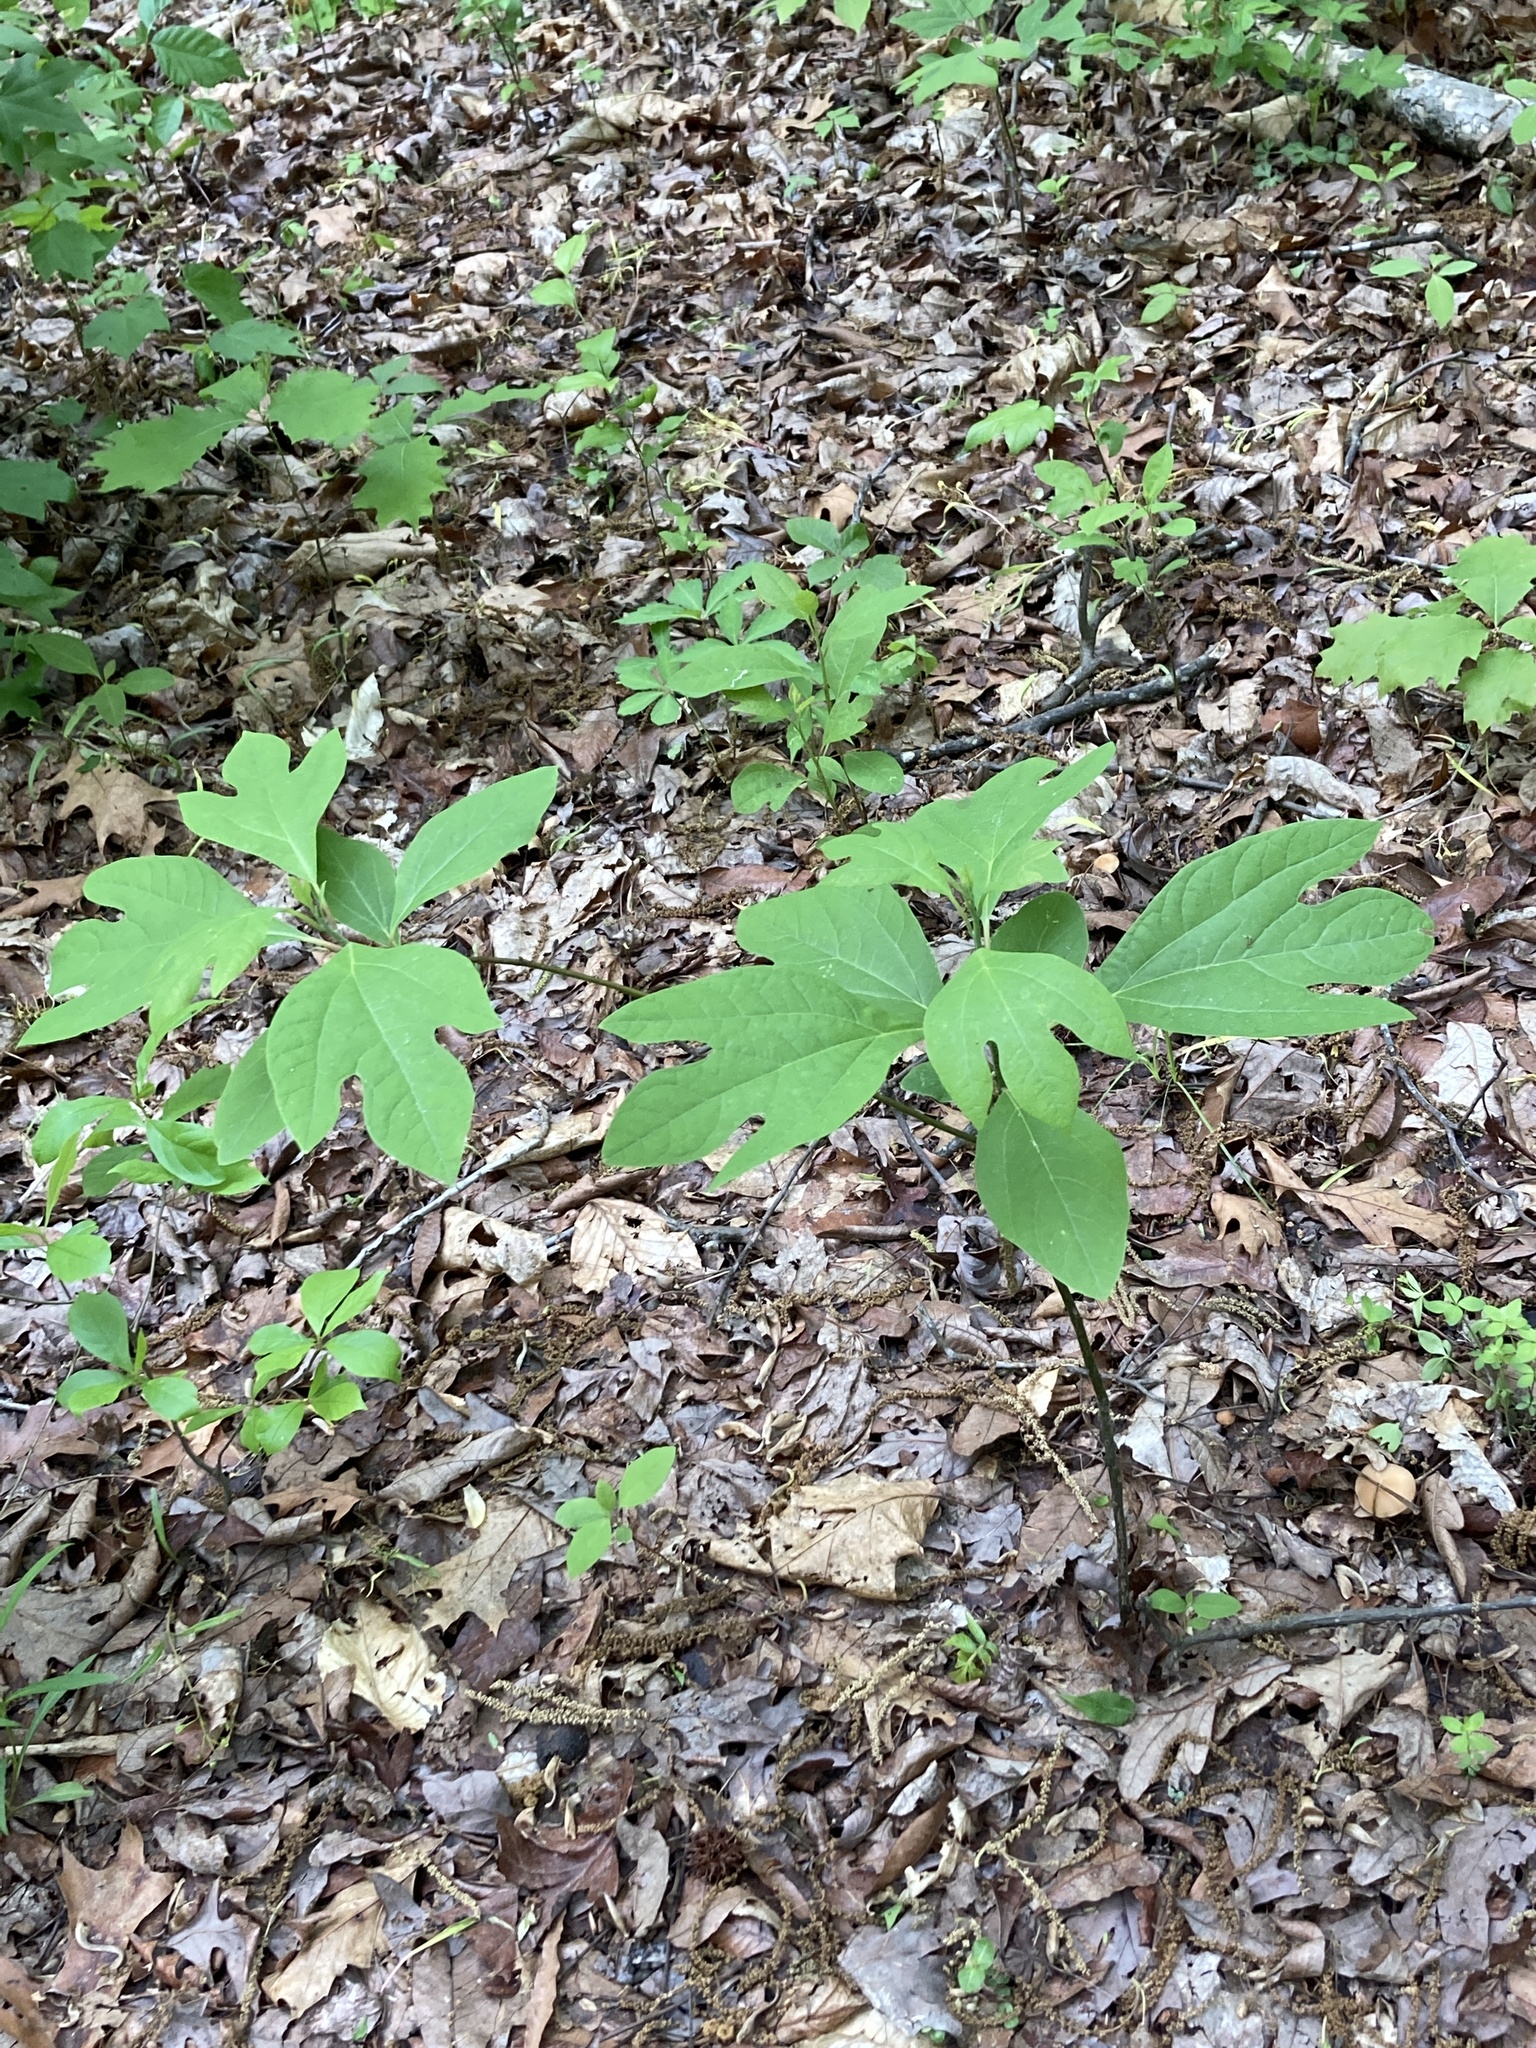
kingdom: Plantae
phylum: Tracheophyta
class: Magnoliopsida
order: Laurales
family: Lauraceae
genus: Sassafras
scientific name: Sassafras albidum
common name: Sassafras
